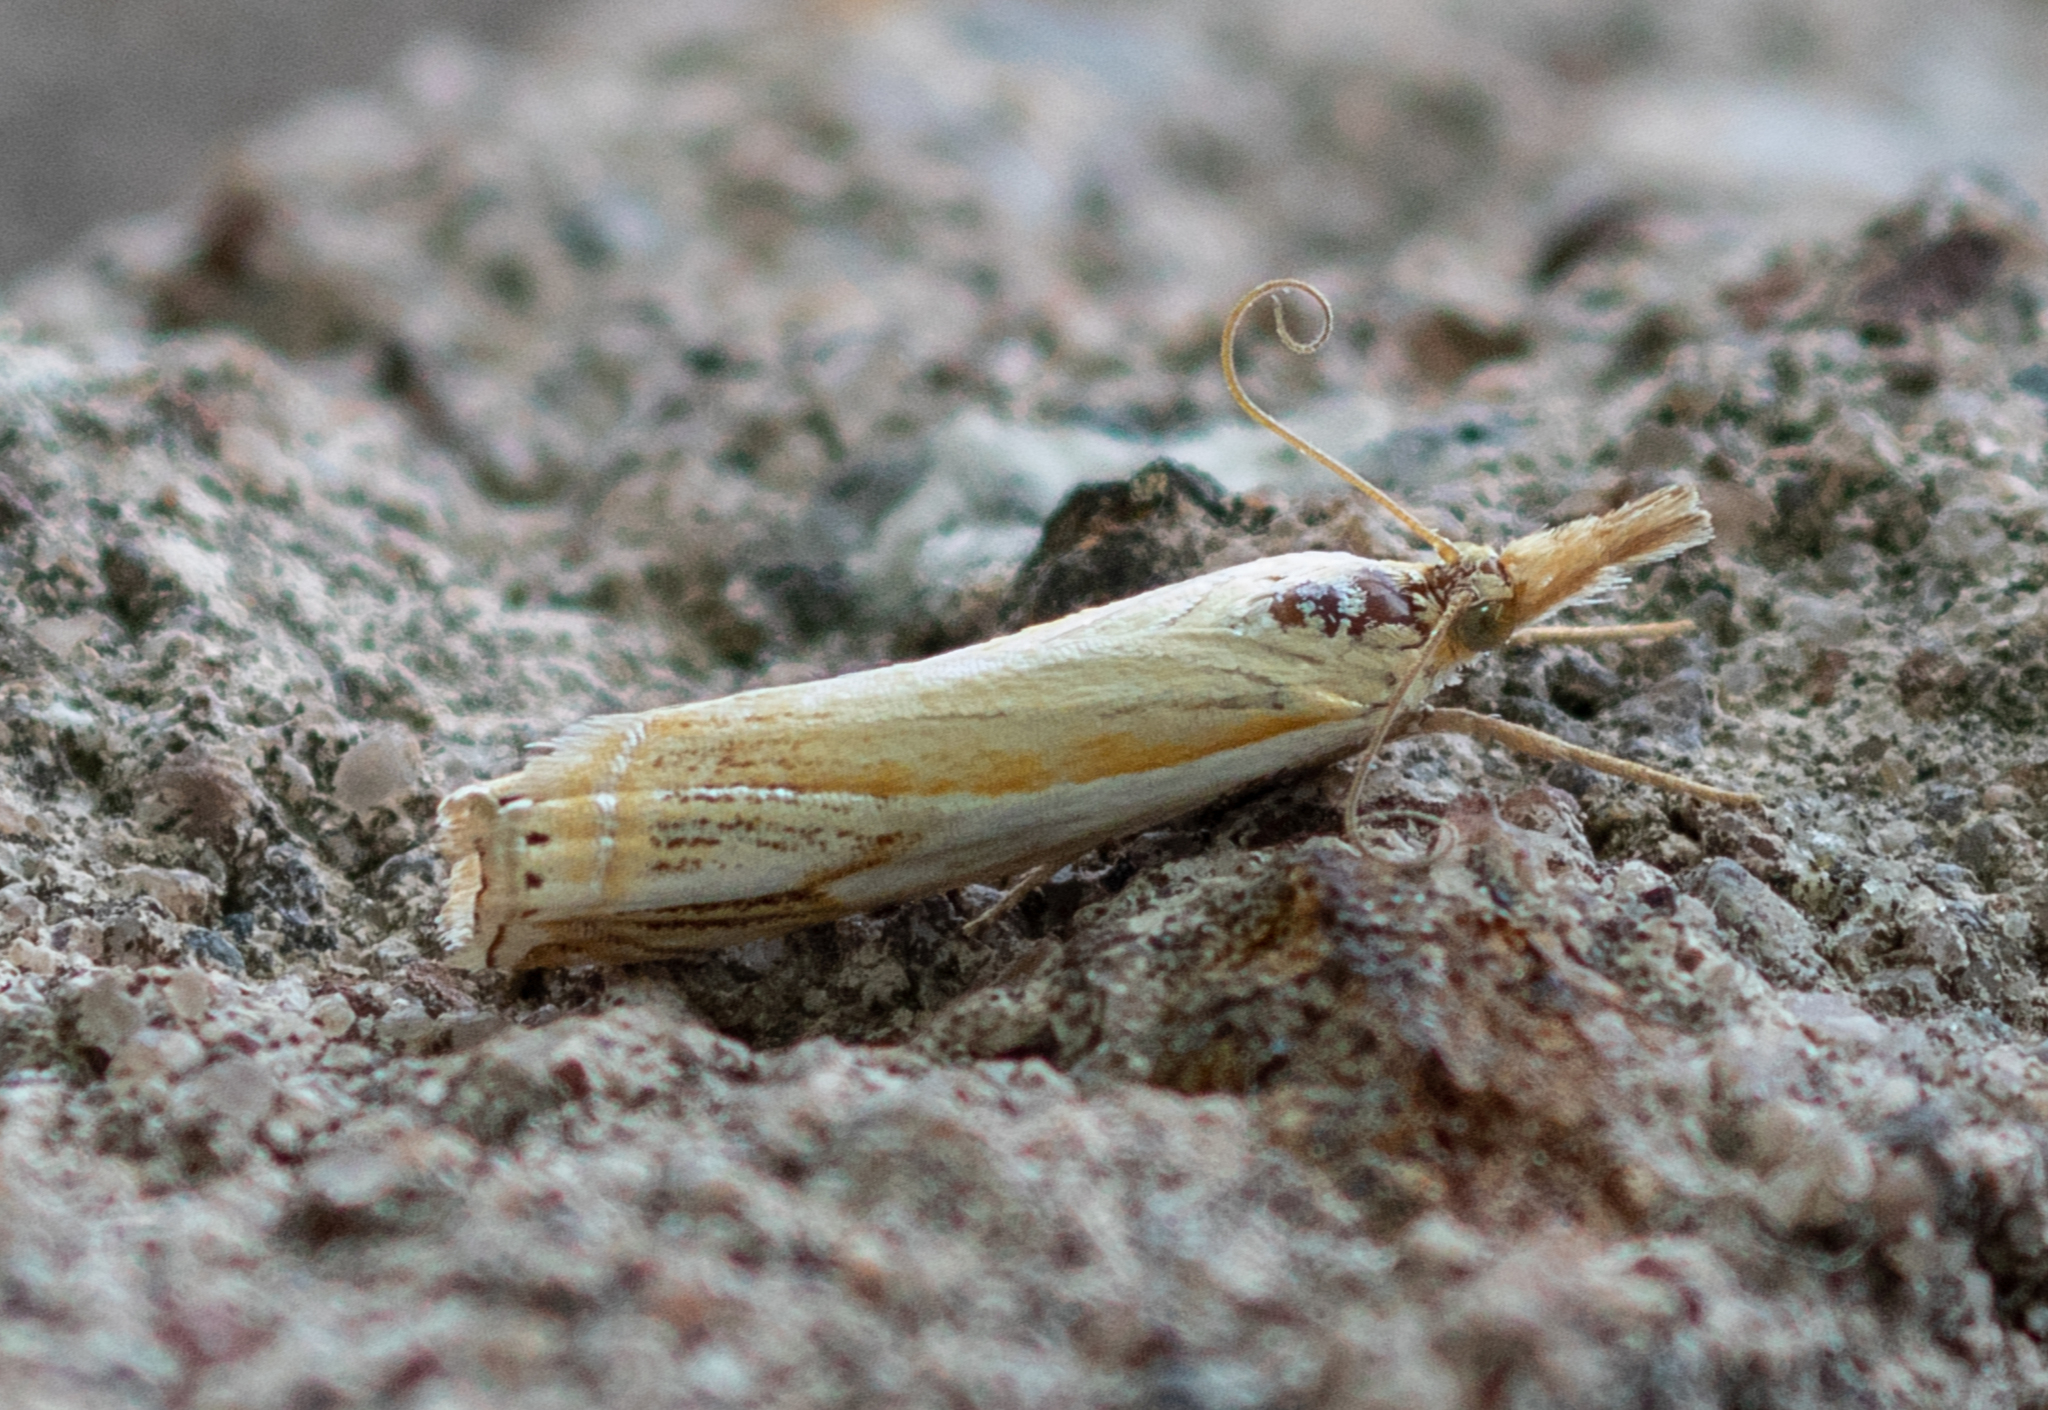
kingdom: Animalia
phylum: Arthropoda
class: Insecta
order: Lepidoptera
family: Crambidae
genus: Crambus
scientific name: Crambus agitatellus
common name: Double-banded grass-veneer
